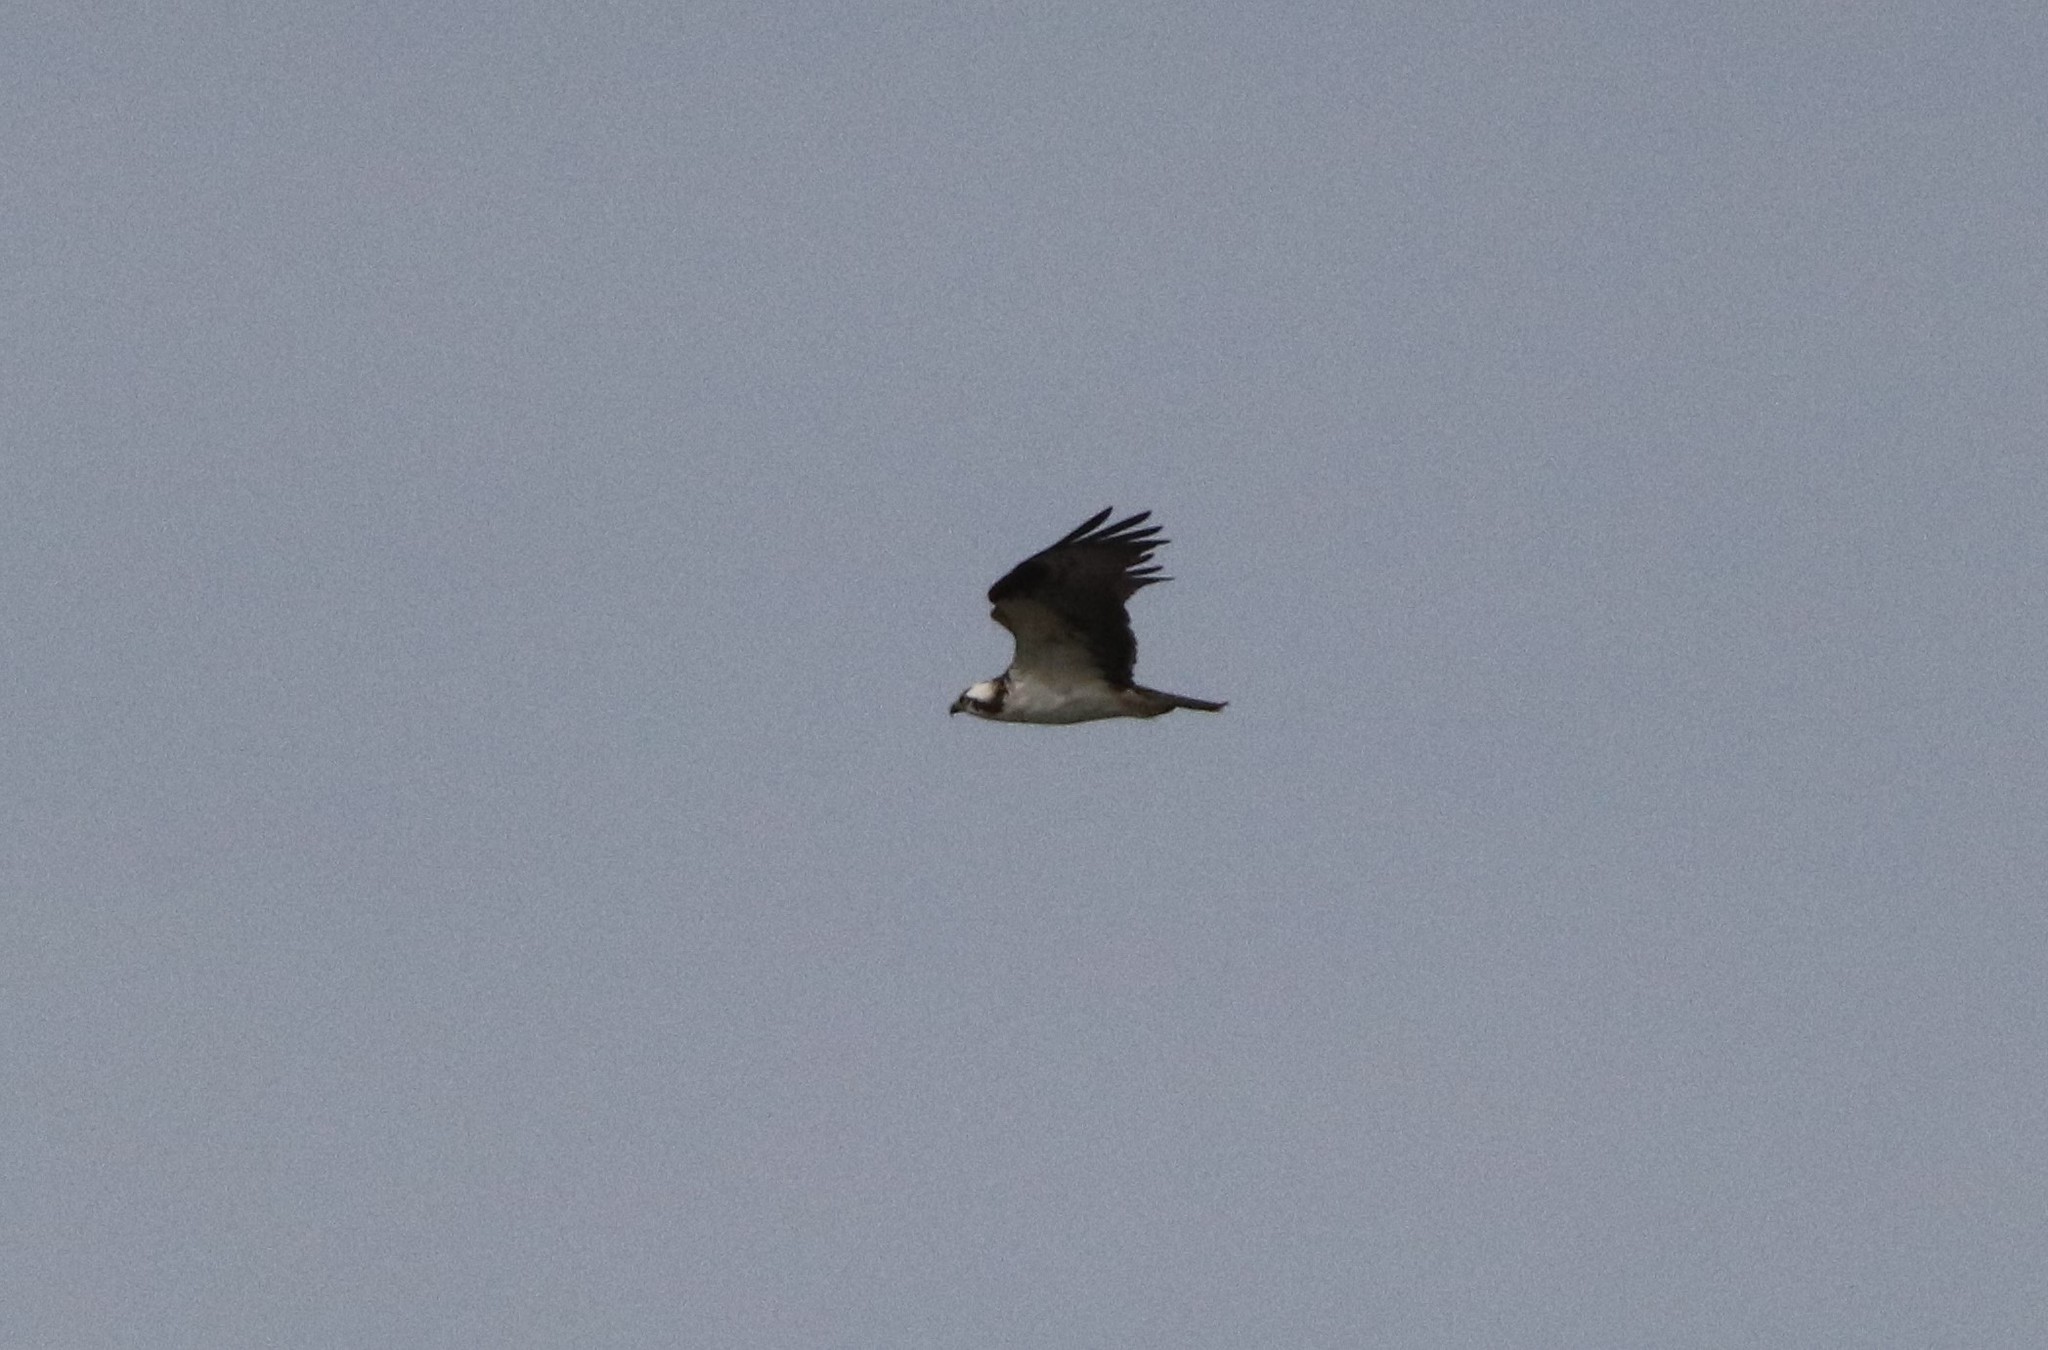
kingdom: Animalia
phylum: Chordata
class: Aves
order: Accipitriformes
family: Pandionidae
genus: Pandion
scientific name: Pandion haliaetus
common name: Osprey
